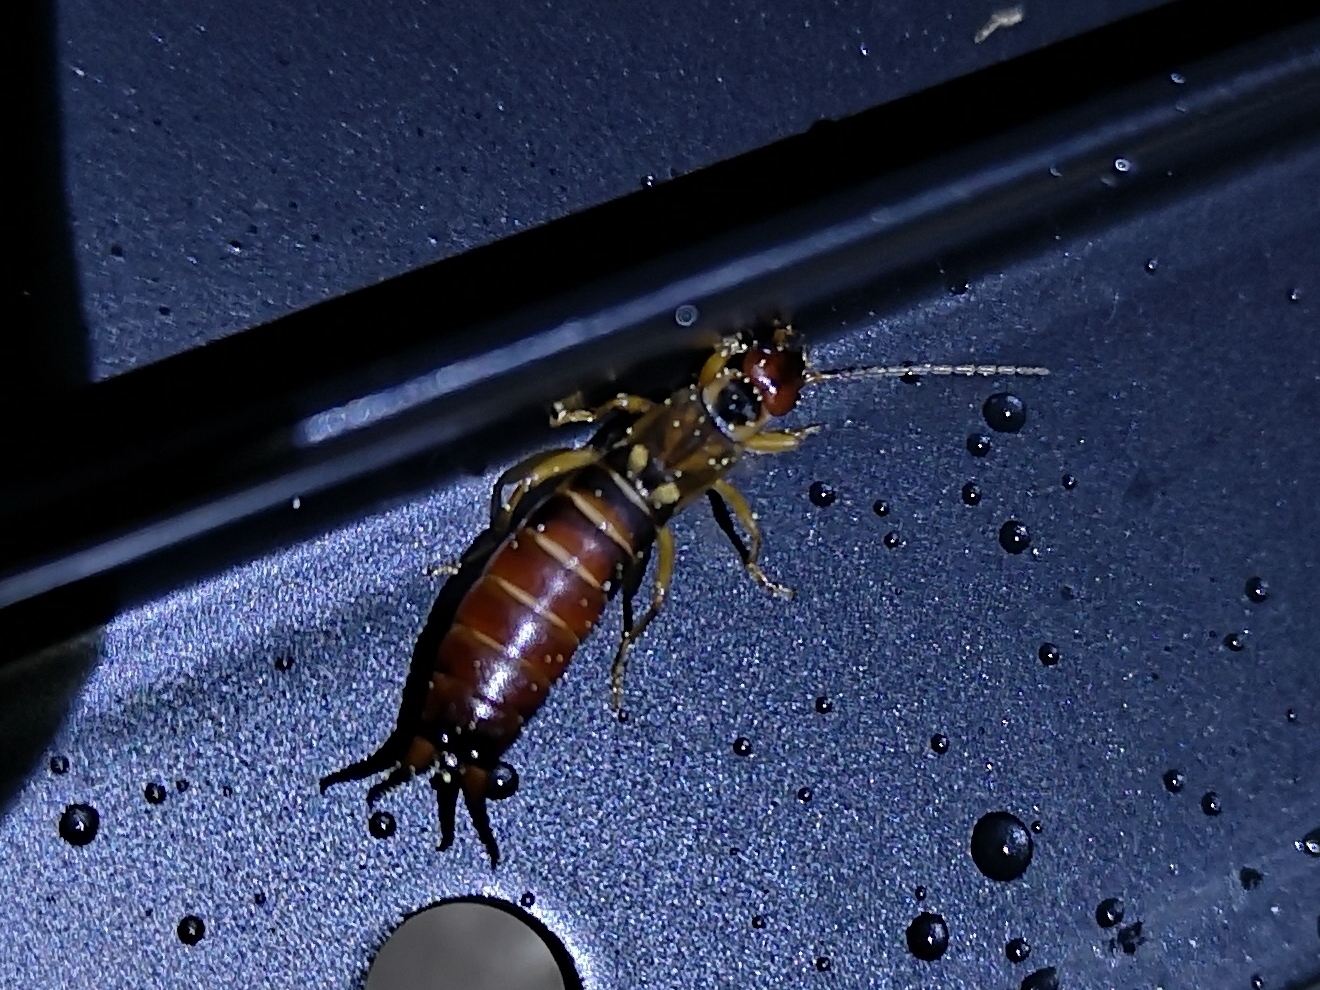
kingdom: Animalia
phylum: Arthropoda
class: Insecta
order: Dermaptera
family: Forficulidae
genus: Forficula
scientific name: Forficula
